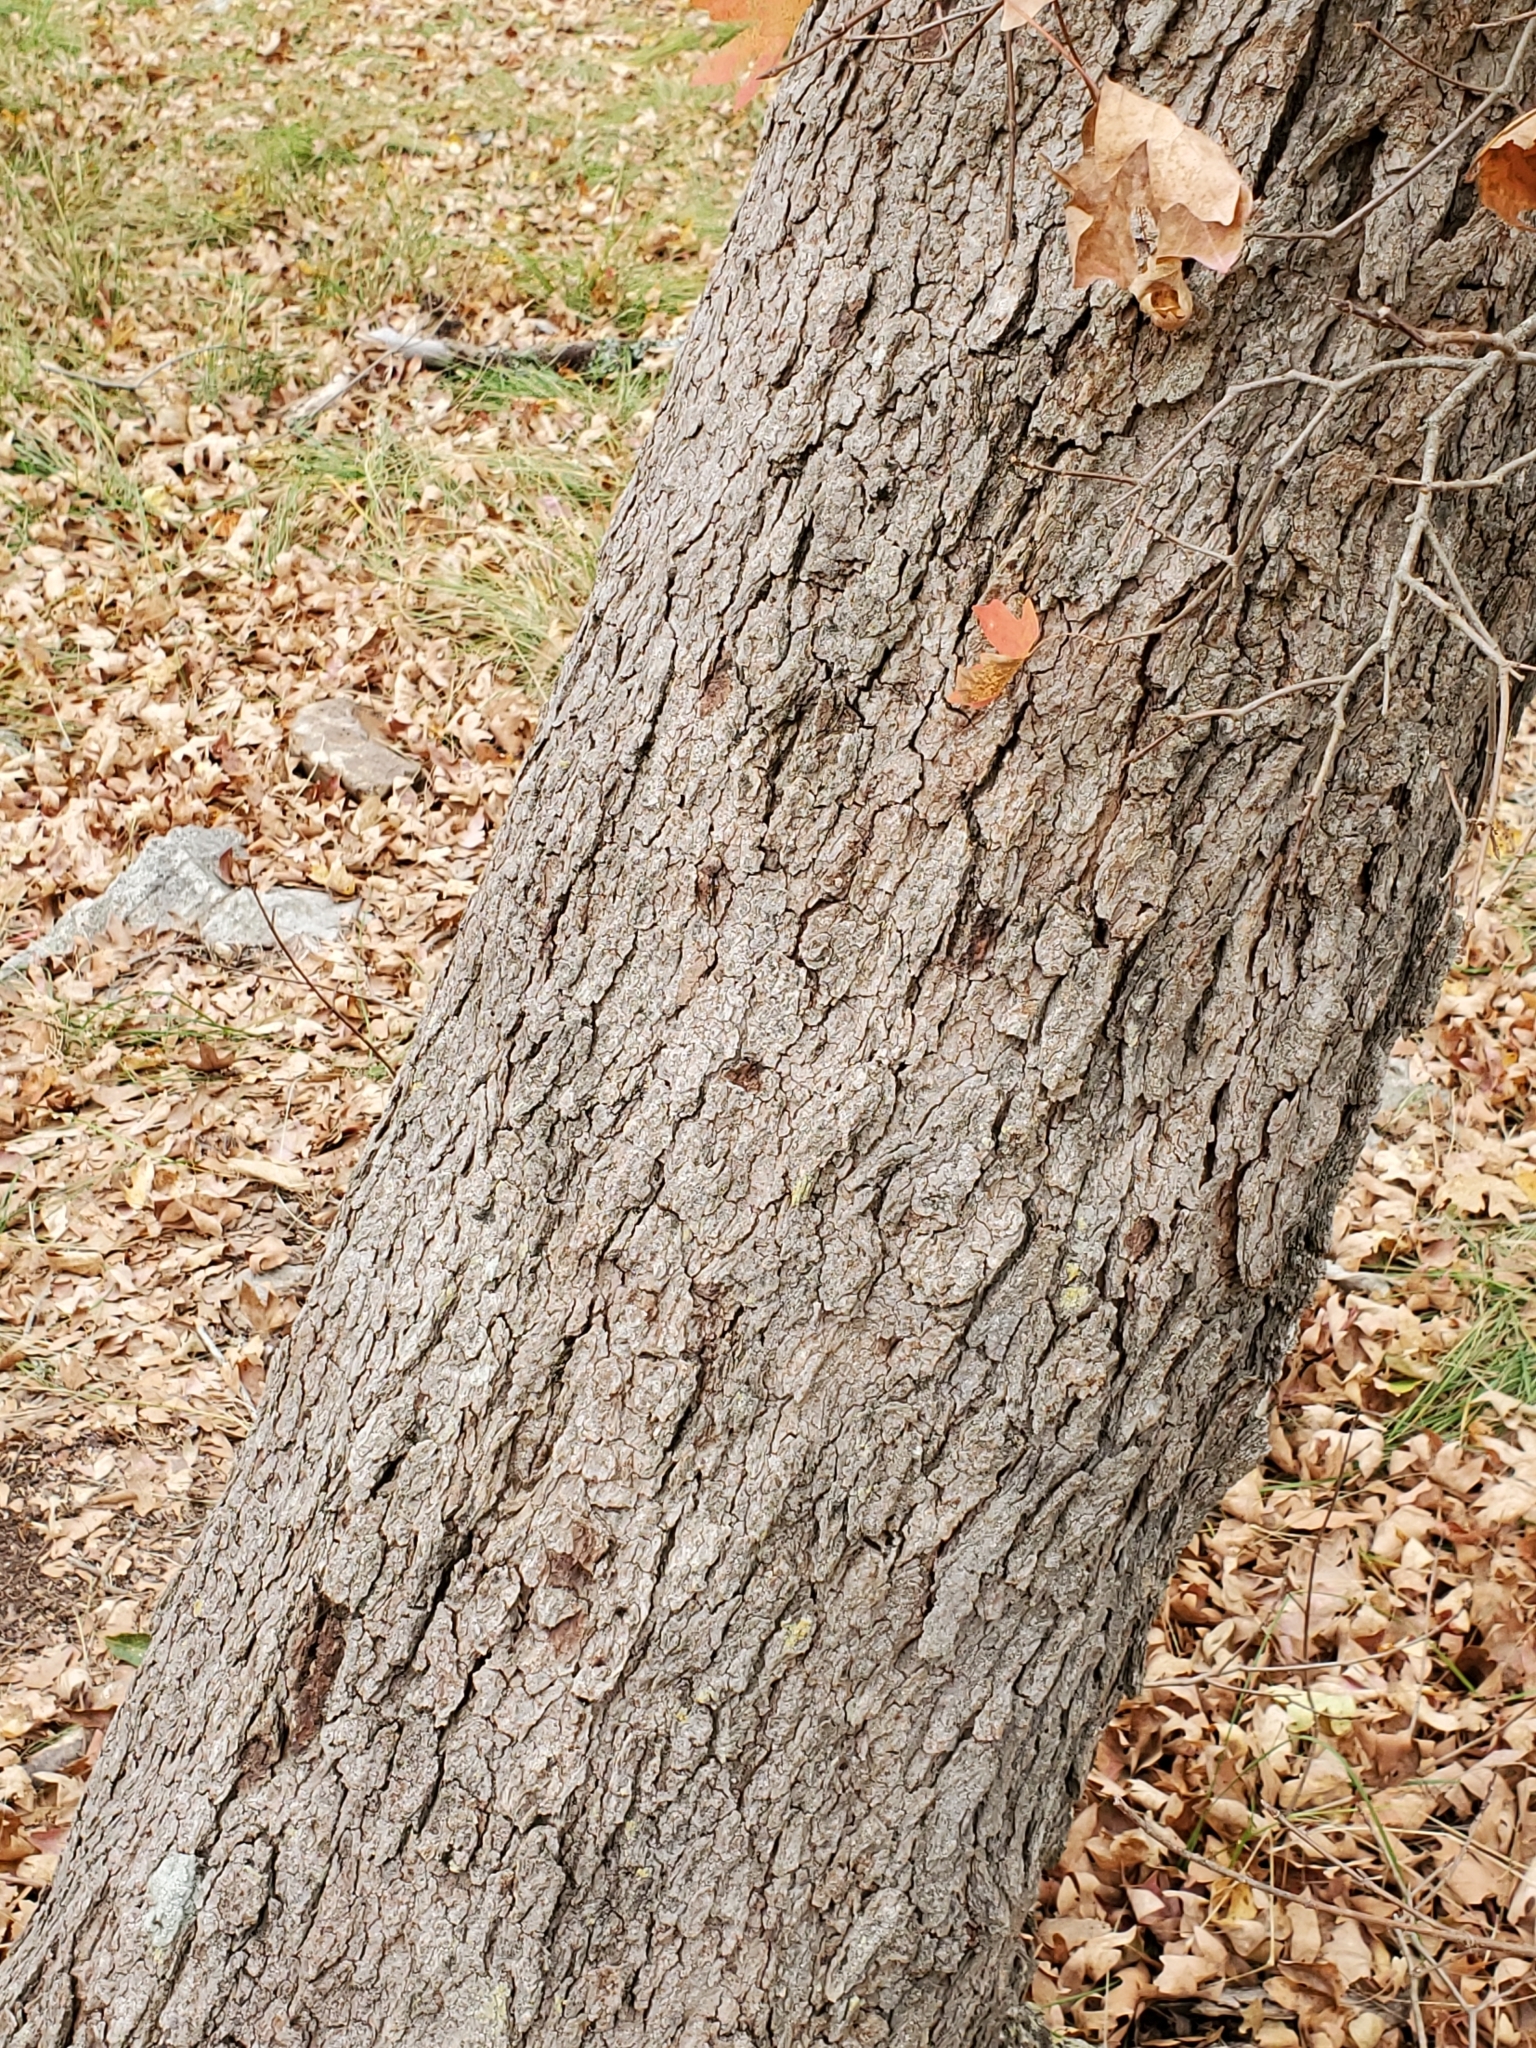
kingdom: Plantae
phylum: Tracheophyta
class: Magnoliopsida
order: Sapindales
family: Sapindaceae
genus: Acer
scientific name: Acer grandidentatum
